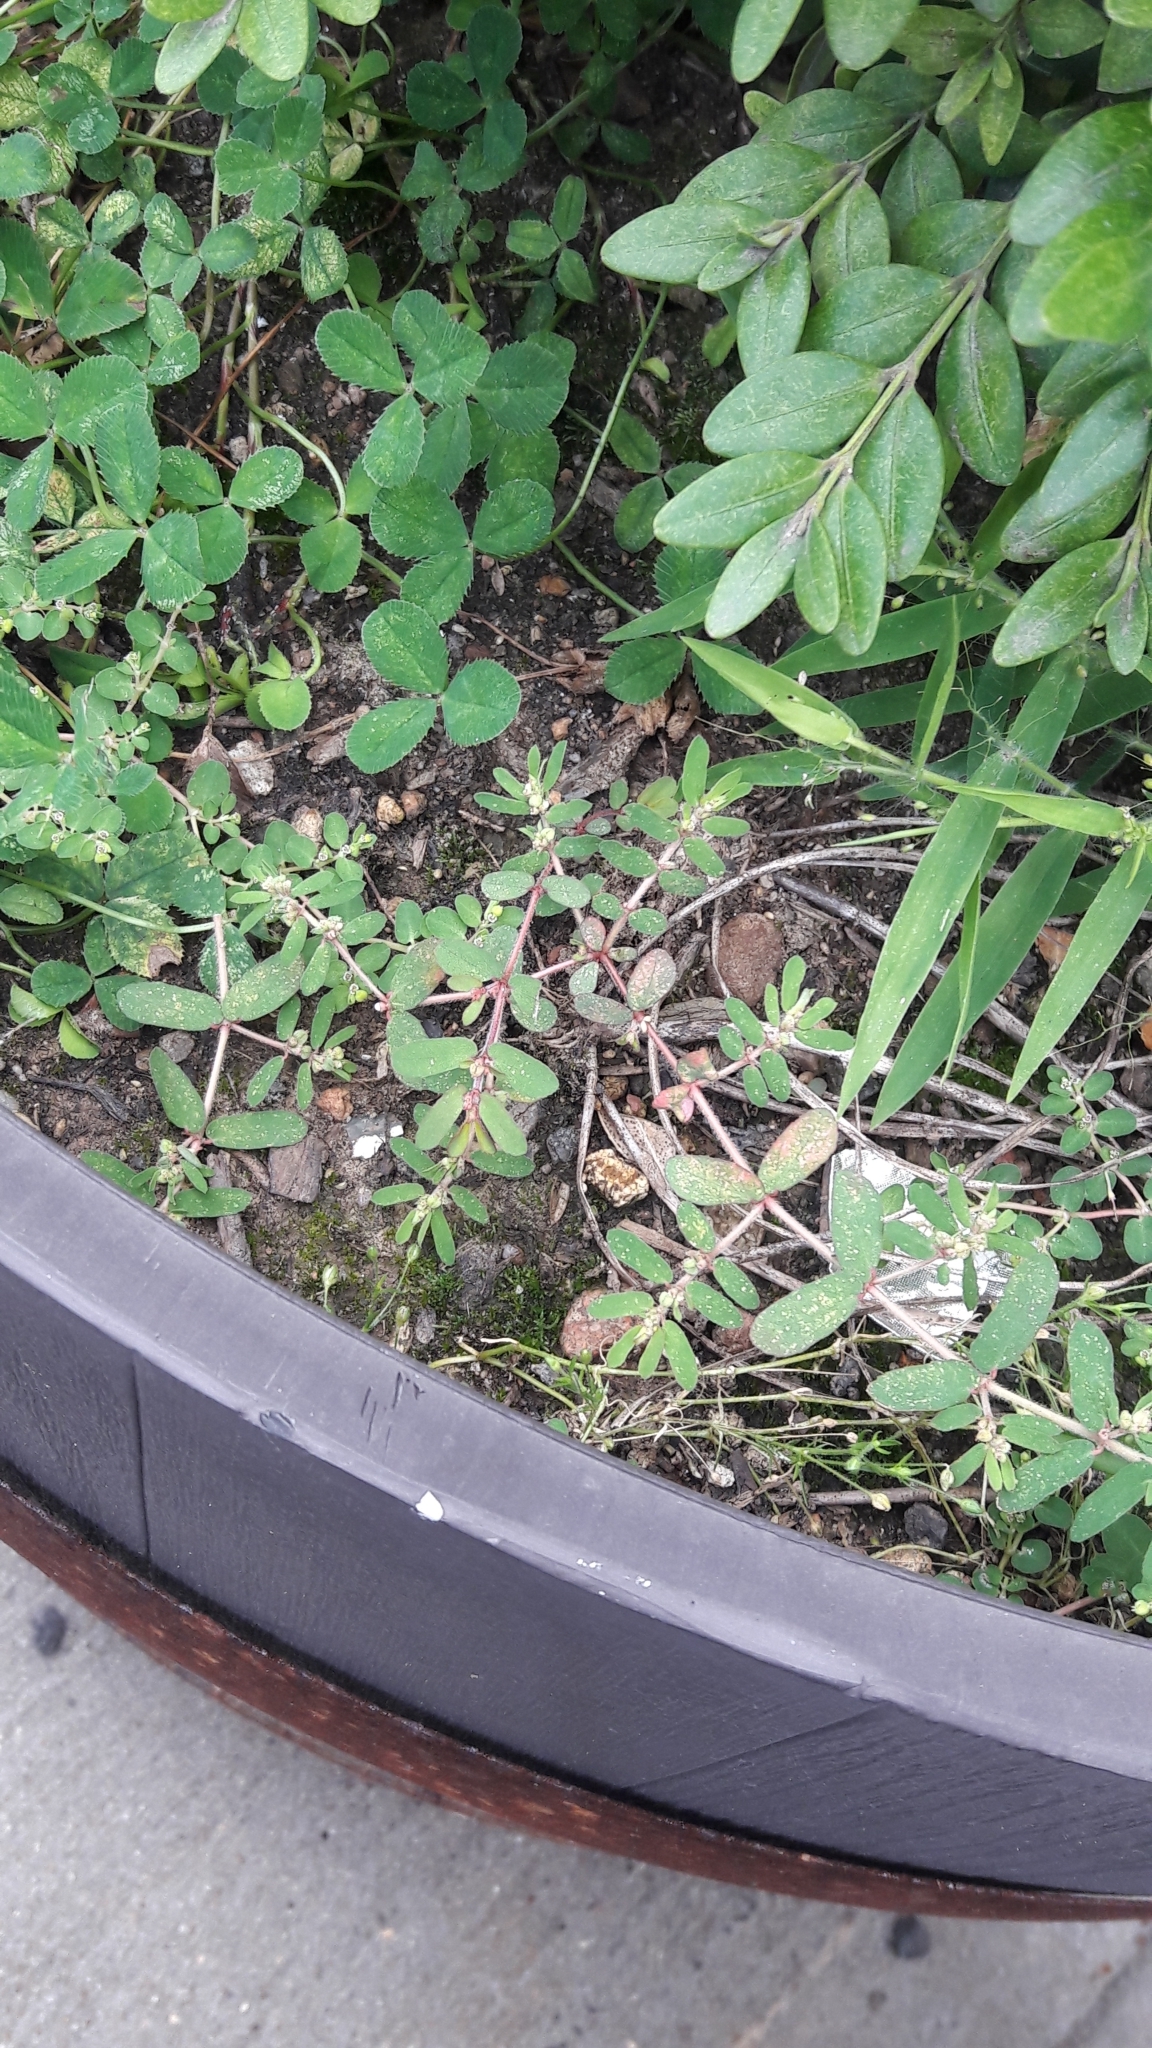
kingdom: Plantae
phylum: Tracheophyta
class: Magnoliopsida
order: Malpighiales
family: Euphorbiaceae
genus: Euphorbia
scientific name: Euphorbia maculata
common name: Spotted spurge
